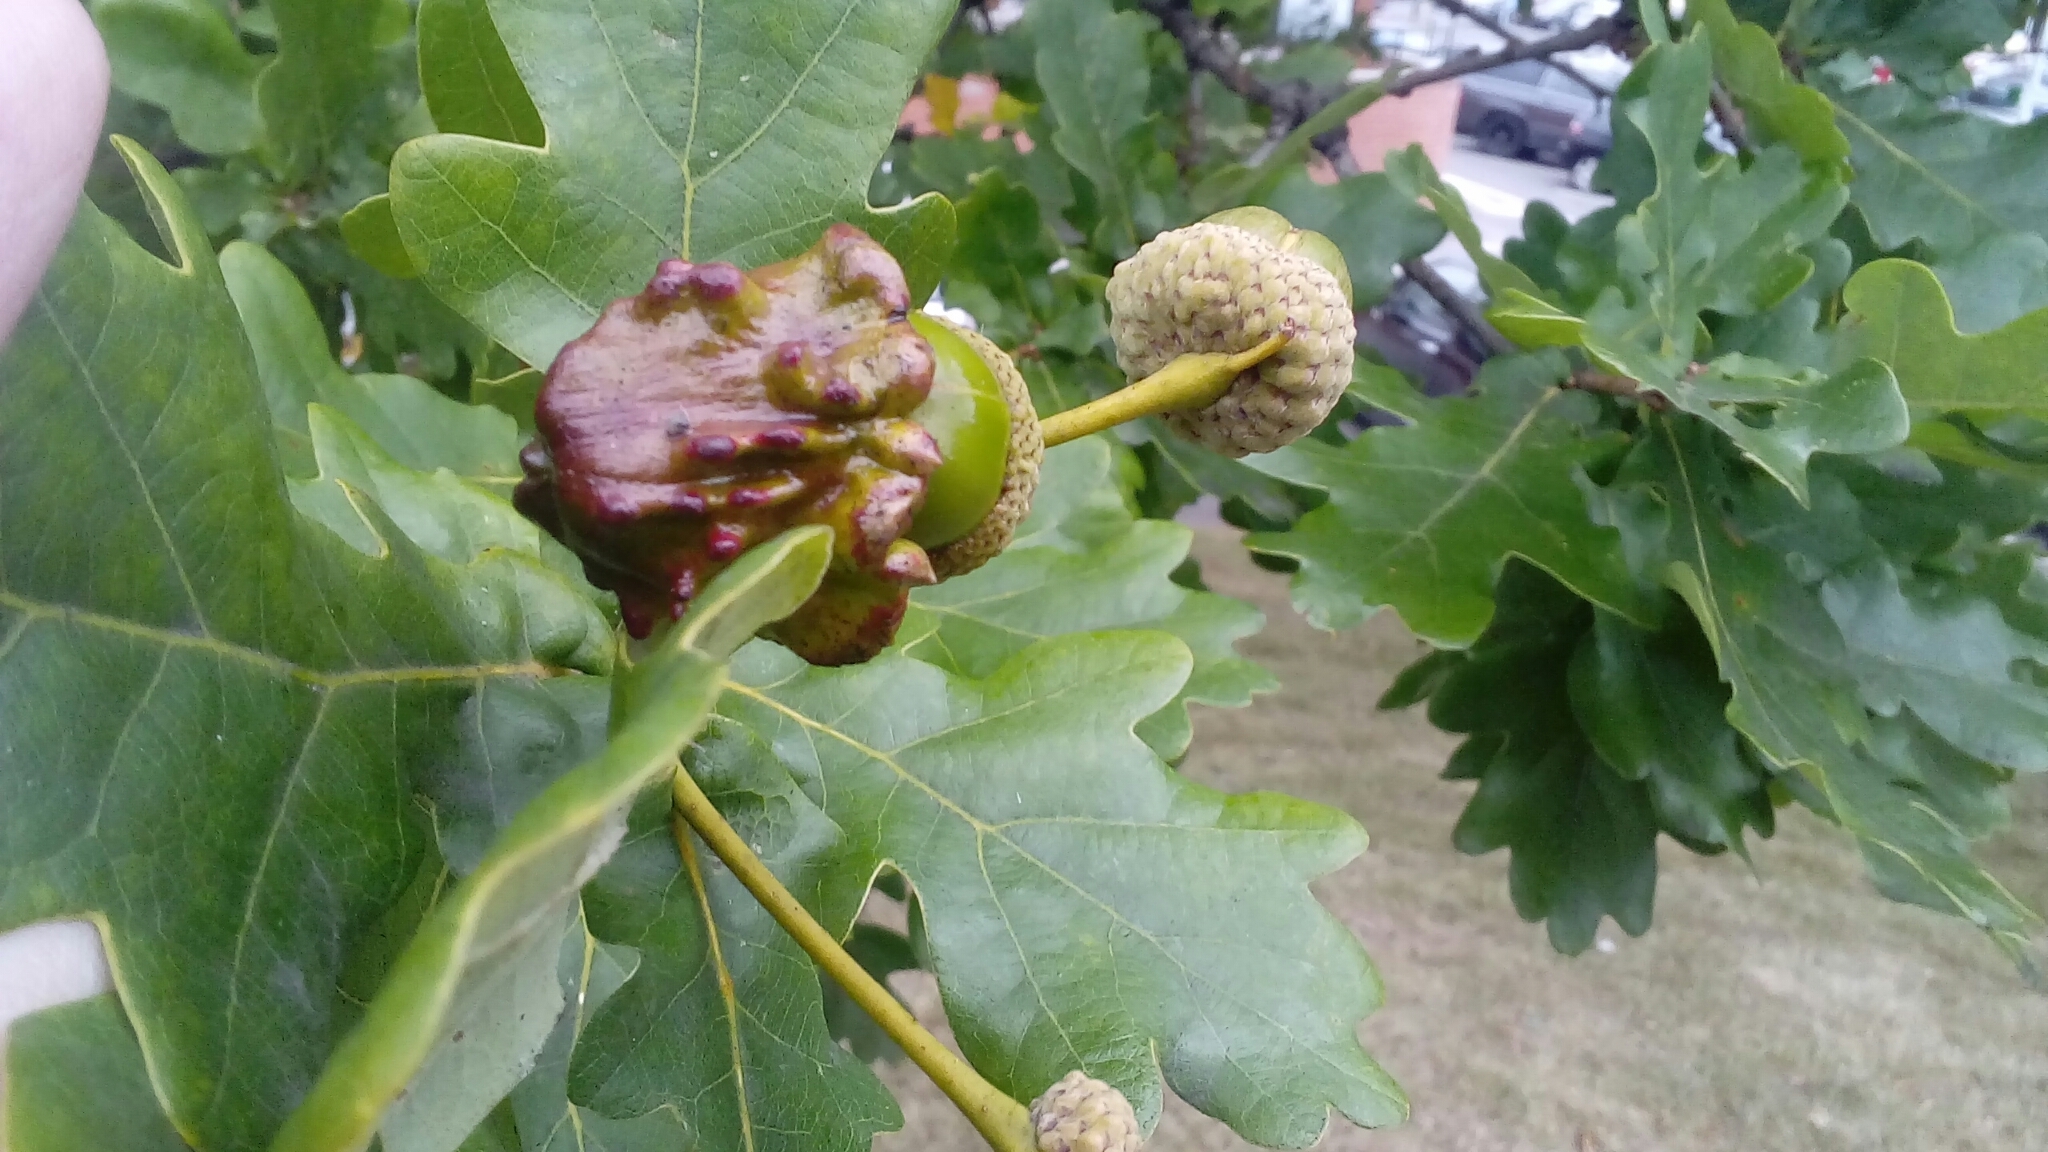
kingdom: Animalia
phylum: Arthropoda
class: Insecta
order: Hymenoptera
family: Cynipidae
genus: Andricus
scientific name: Andricus quercuscalicis
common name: Knopper gall
